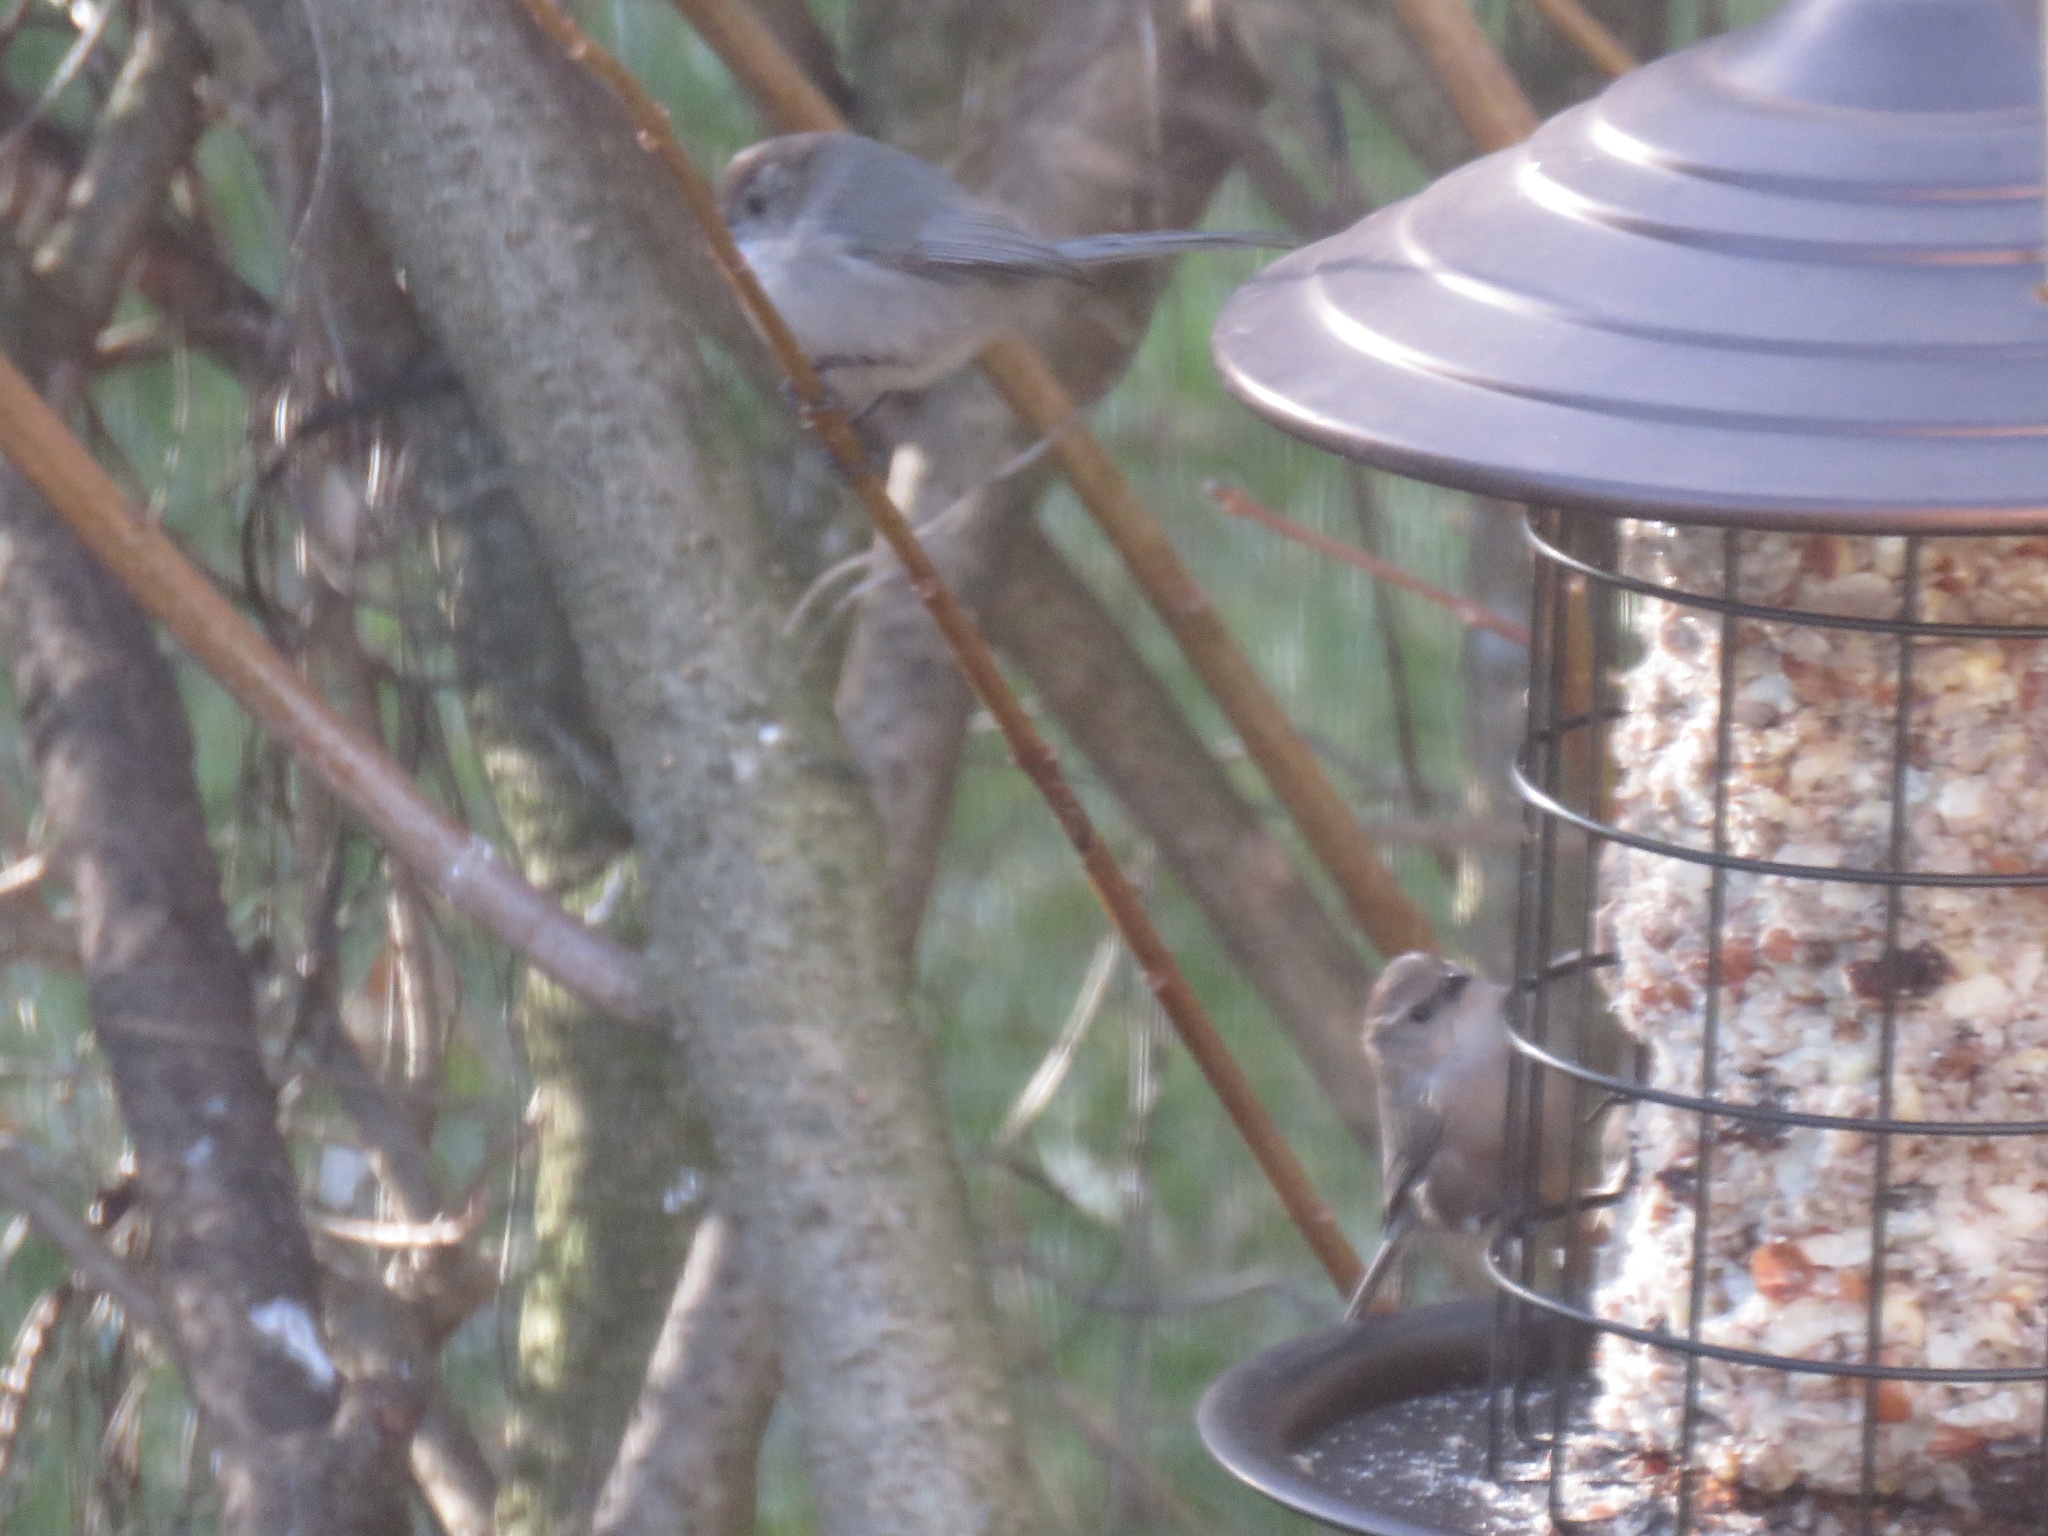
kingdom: Animalia
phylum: Chordata
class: Aves
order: Passeriformes
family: Aegithalidae
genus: Psaltriparus
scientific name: Psaltriparus minimus
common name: American bushtit
